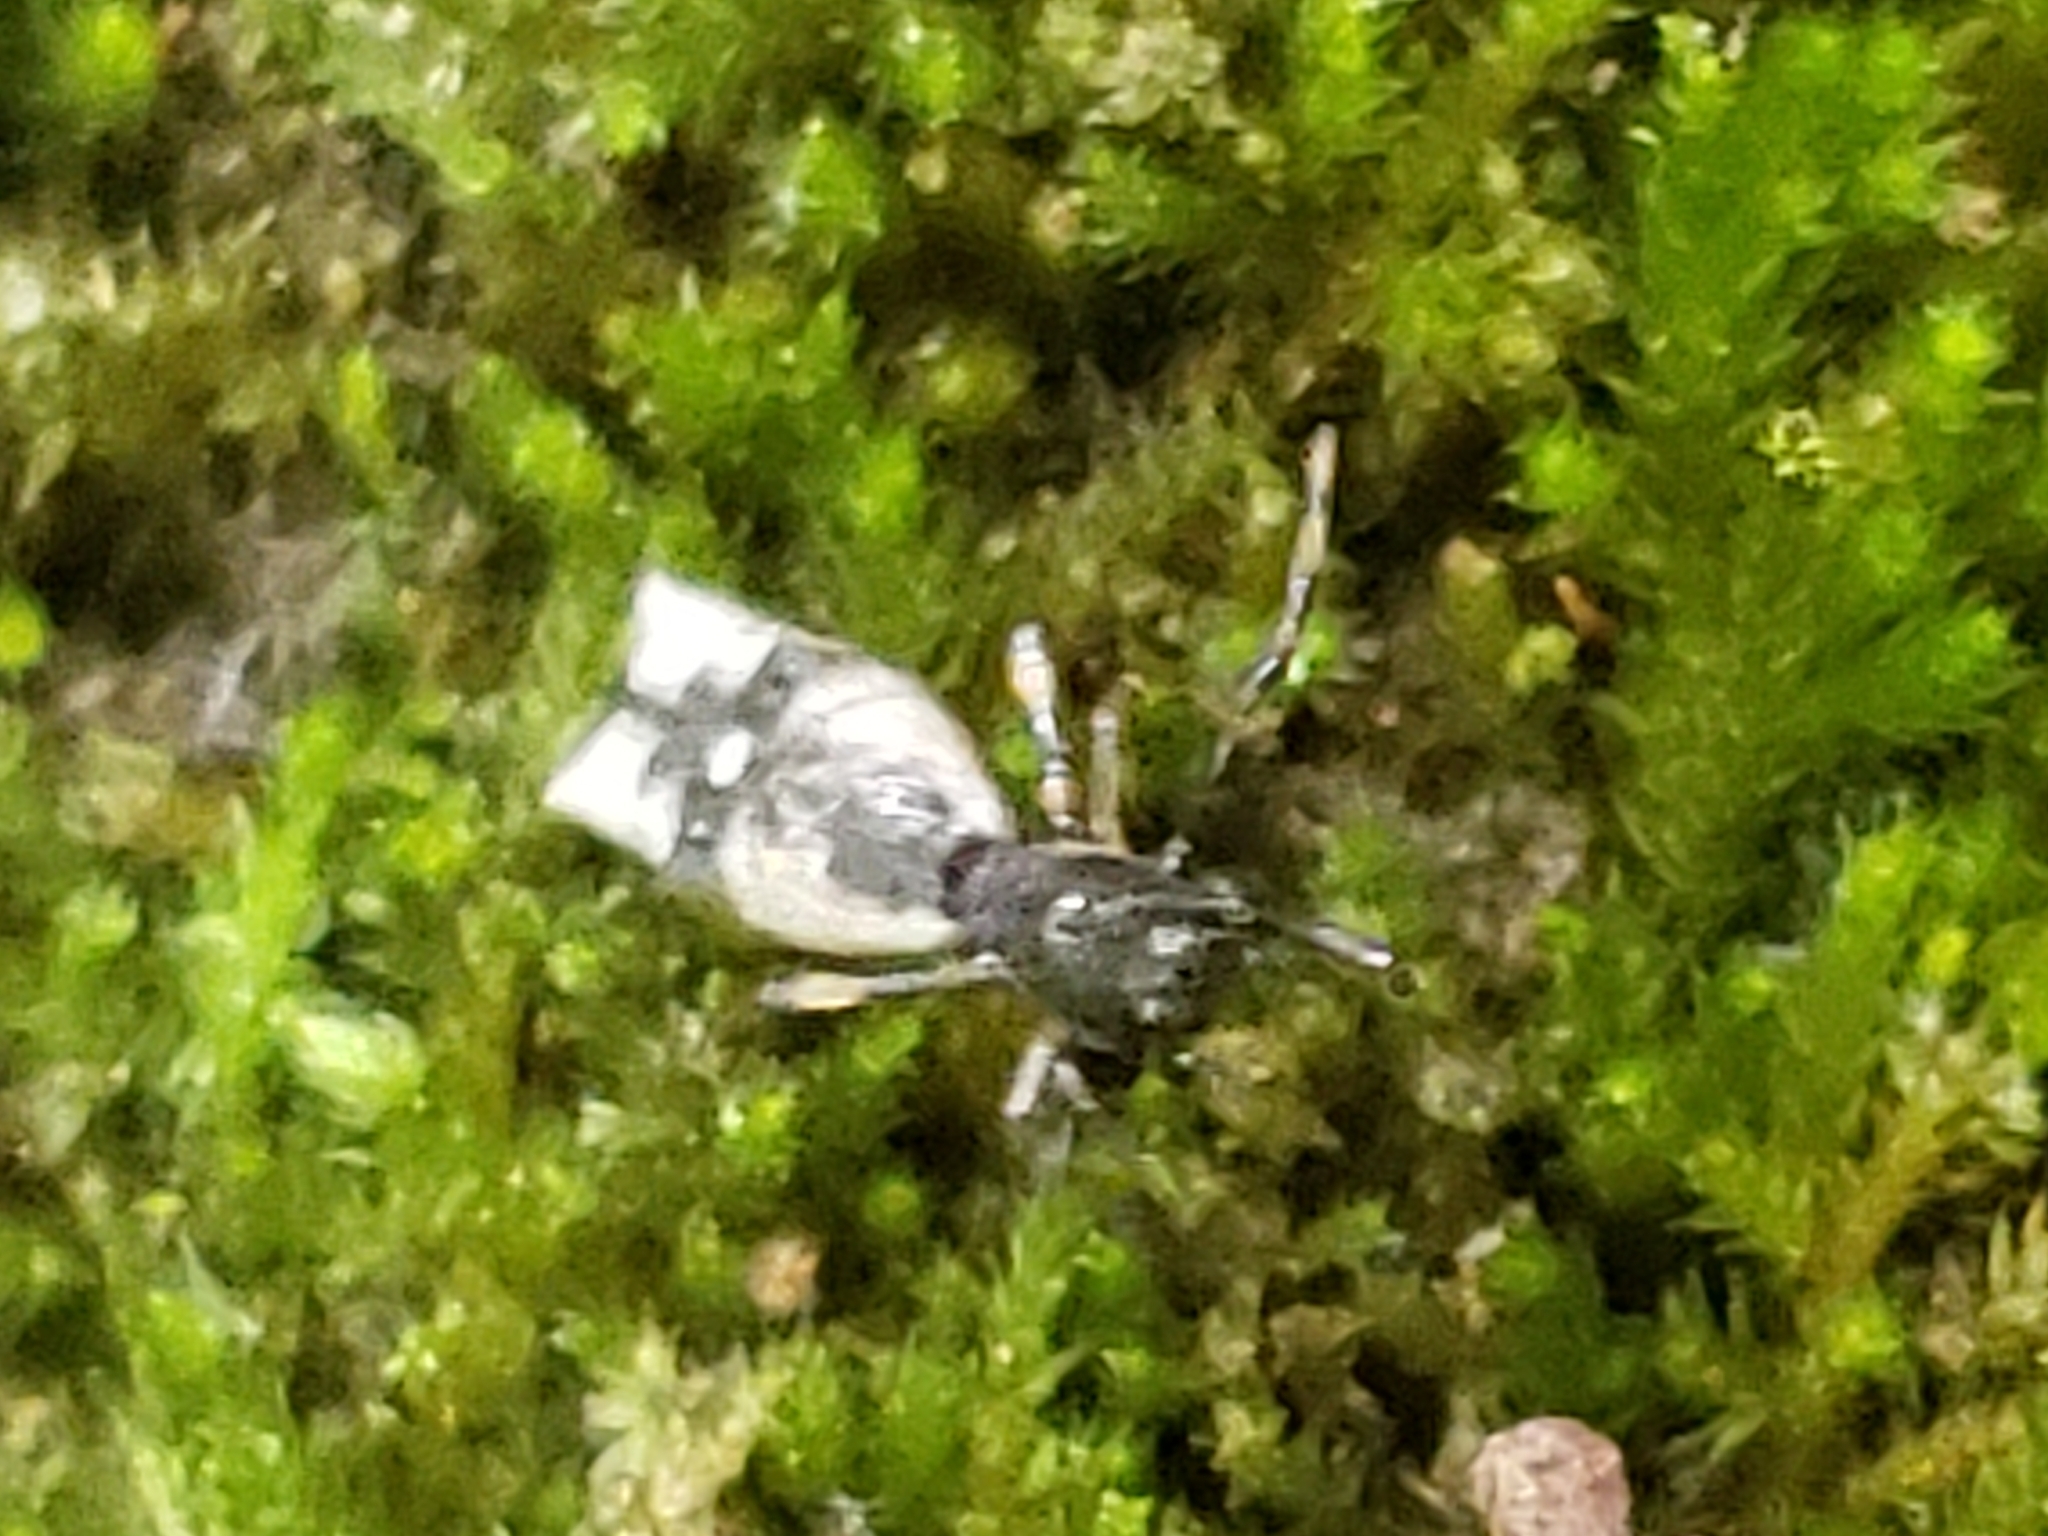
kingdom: Animalia
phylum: Arthropoda
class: Arachnida
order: Araneae
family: Araneidae
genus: Micrathena
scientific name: Micrathena gracilis
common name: Orb weavers
